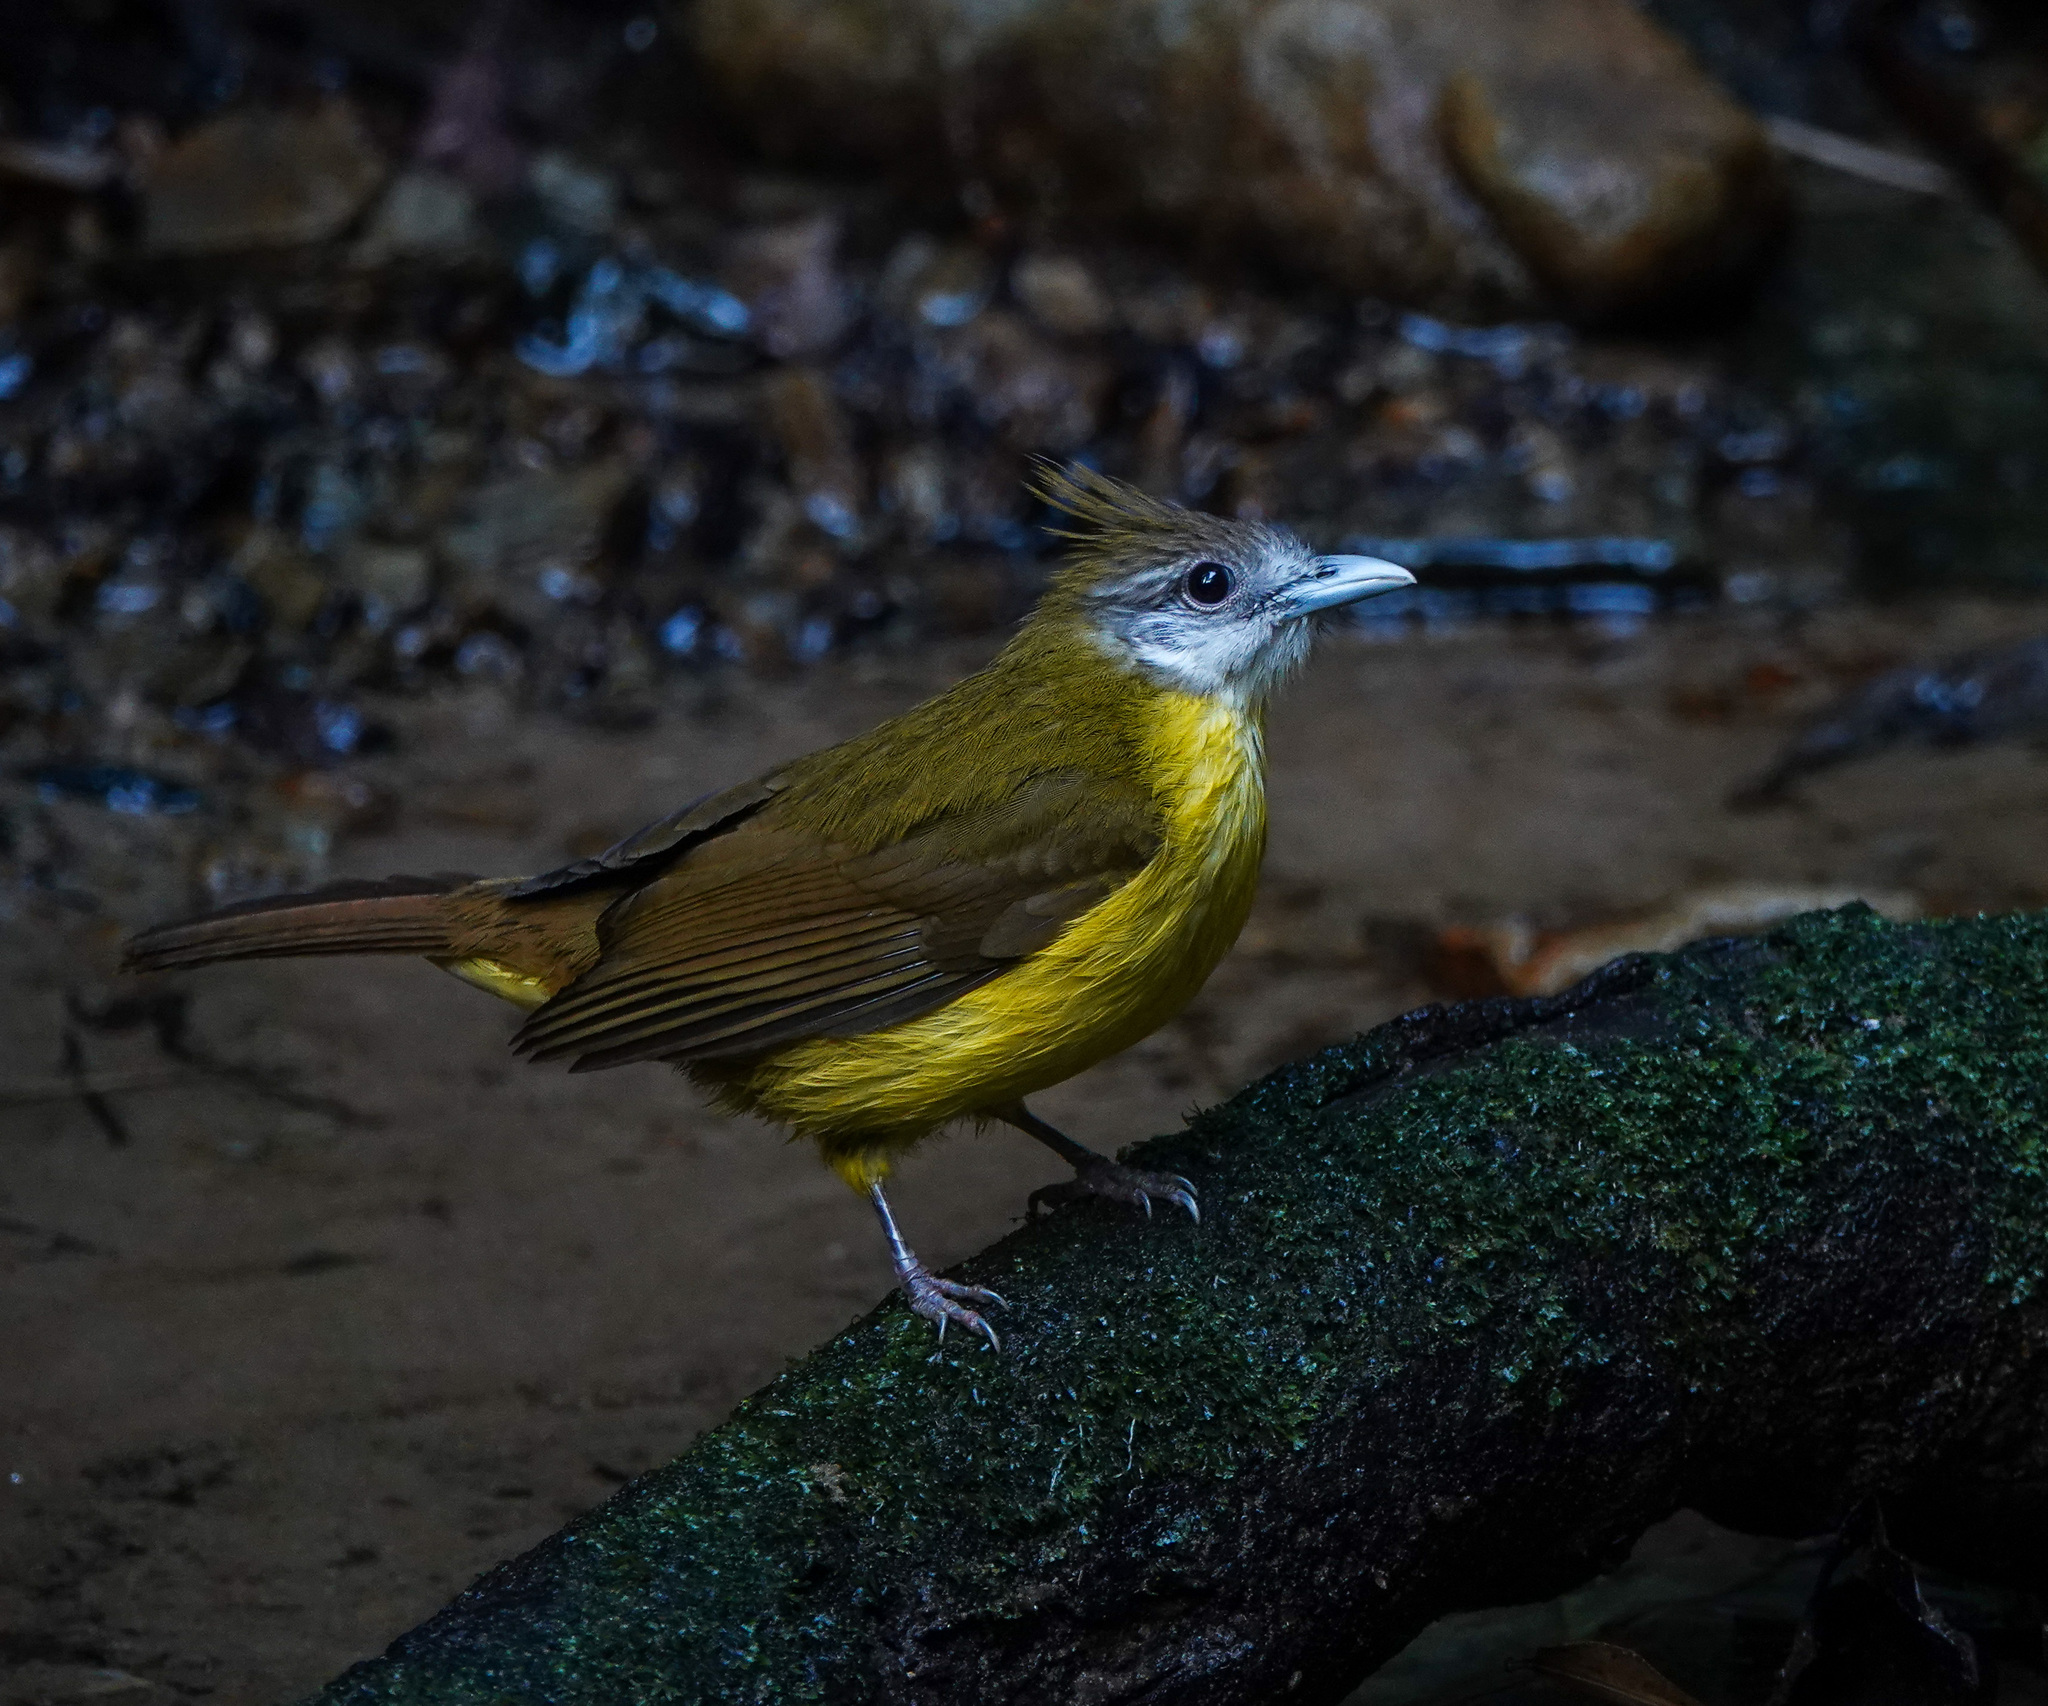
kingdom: Animalia
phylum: Chordata
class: Aves
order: Passeriformes
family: Pycnonotidae
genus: Alophoixus
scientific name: Alophoixus flaveolus
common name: White-throated bulbul
